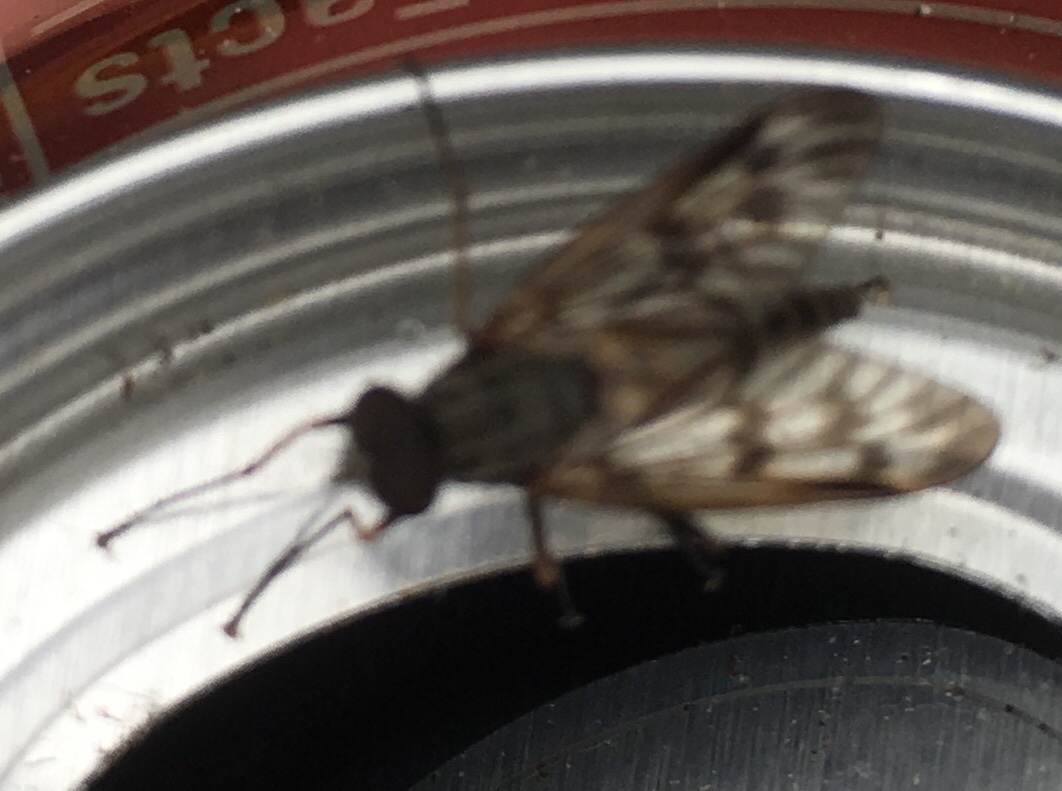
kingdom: Animalia
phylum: Arthropoda
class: Insecta
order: Diptera
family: Rhagionidae
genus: Rhagio
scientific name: Rhagio mystaceus
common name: Common snipe fly
